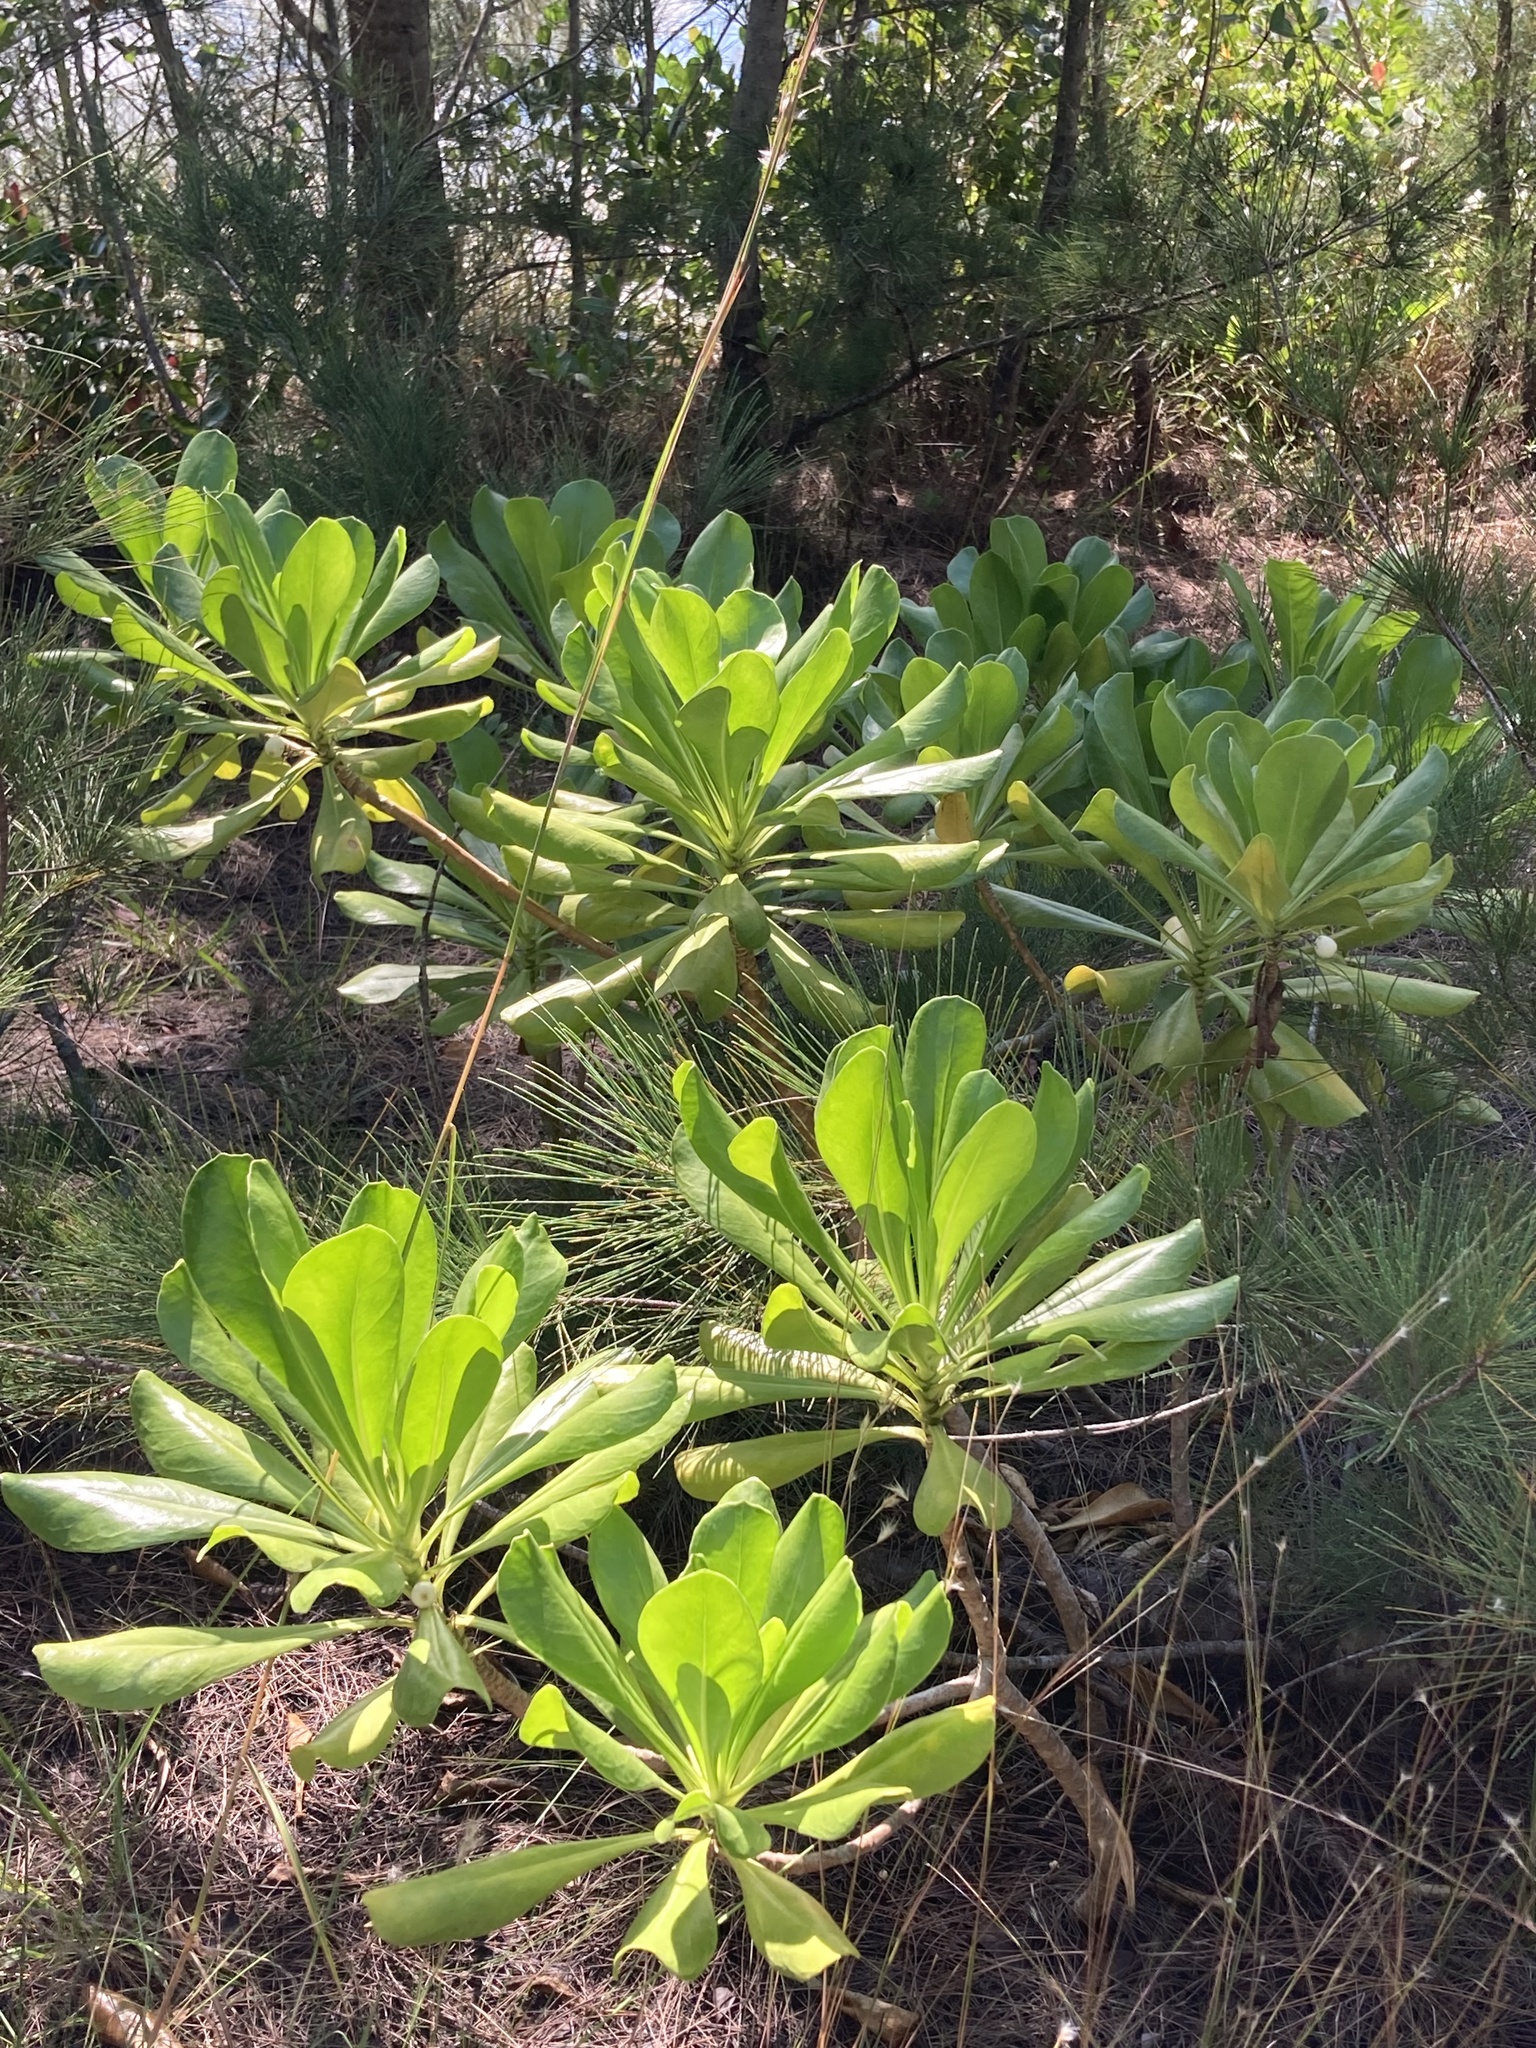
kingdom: Plantae
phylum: Tracheophyta
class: Magnoliopsida
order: Asterales
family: Goodeniaceae
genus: Scaevola
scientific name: Scaevola taccada
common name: Sea lettucetree
